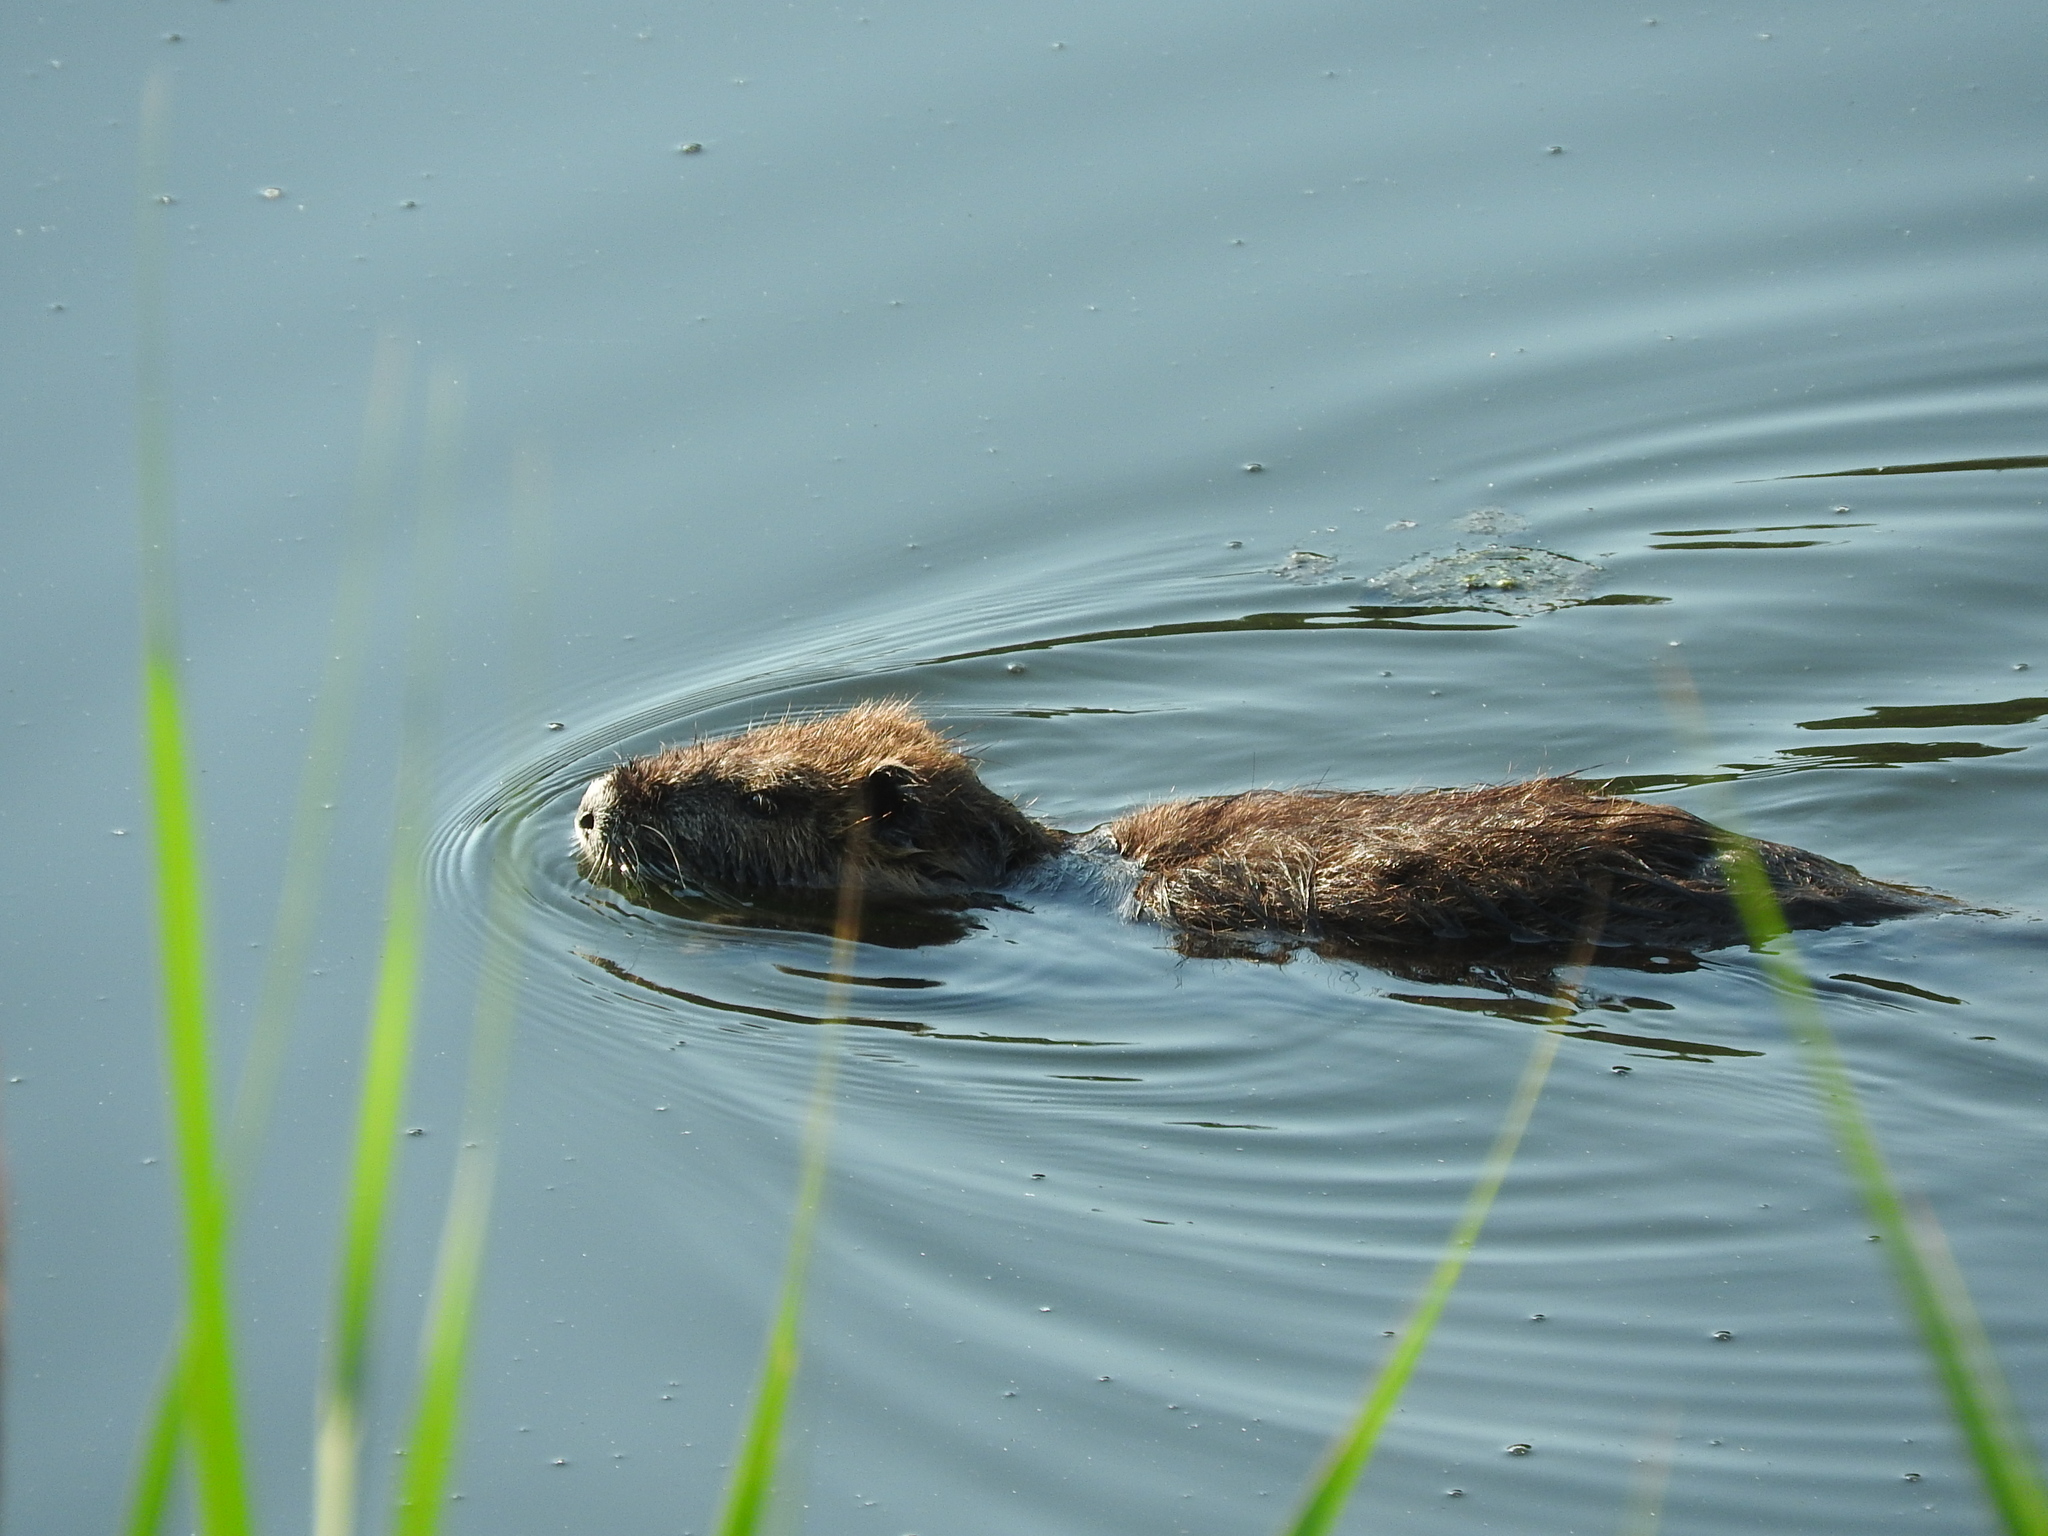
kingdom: Animalia
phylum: Chordata
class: Mammalia
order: Rodentia
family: Myocastoridae
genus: Myocastor
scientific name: Myocastor coypus
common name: Coypu
